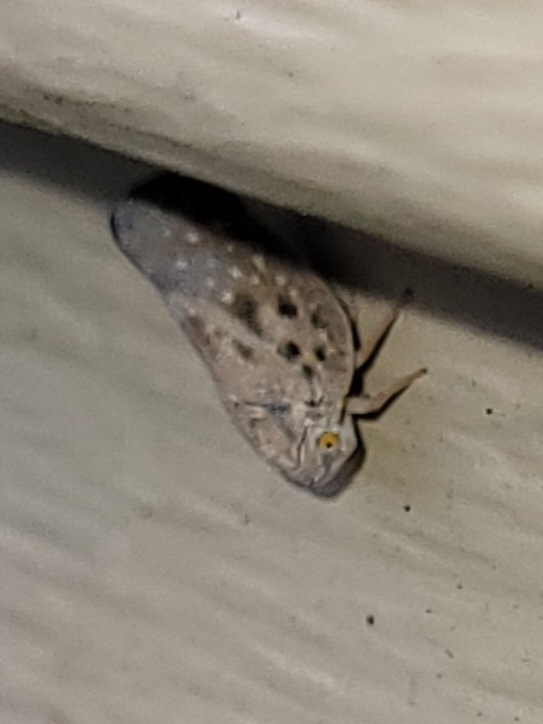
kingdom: Animalia
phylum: Arthropoda
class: Insecta
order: Hemiptera
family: Flatidae
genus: Metcalfa
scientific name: Metcalfa pruinosa
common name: Citrus flatid planthopper
